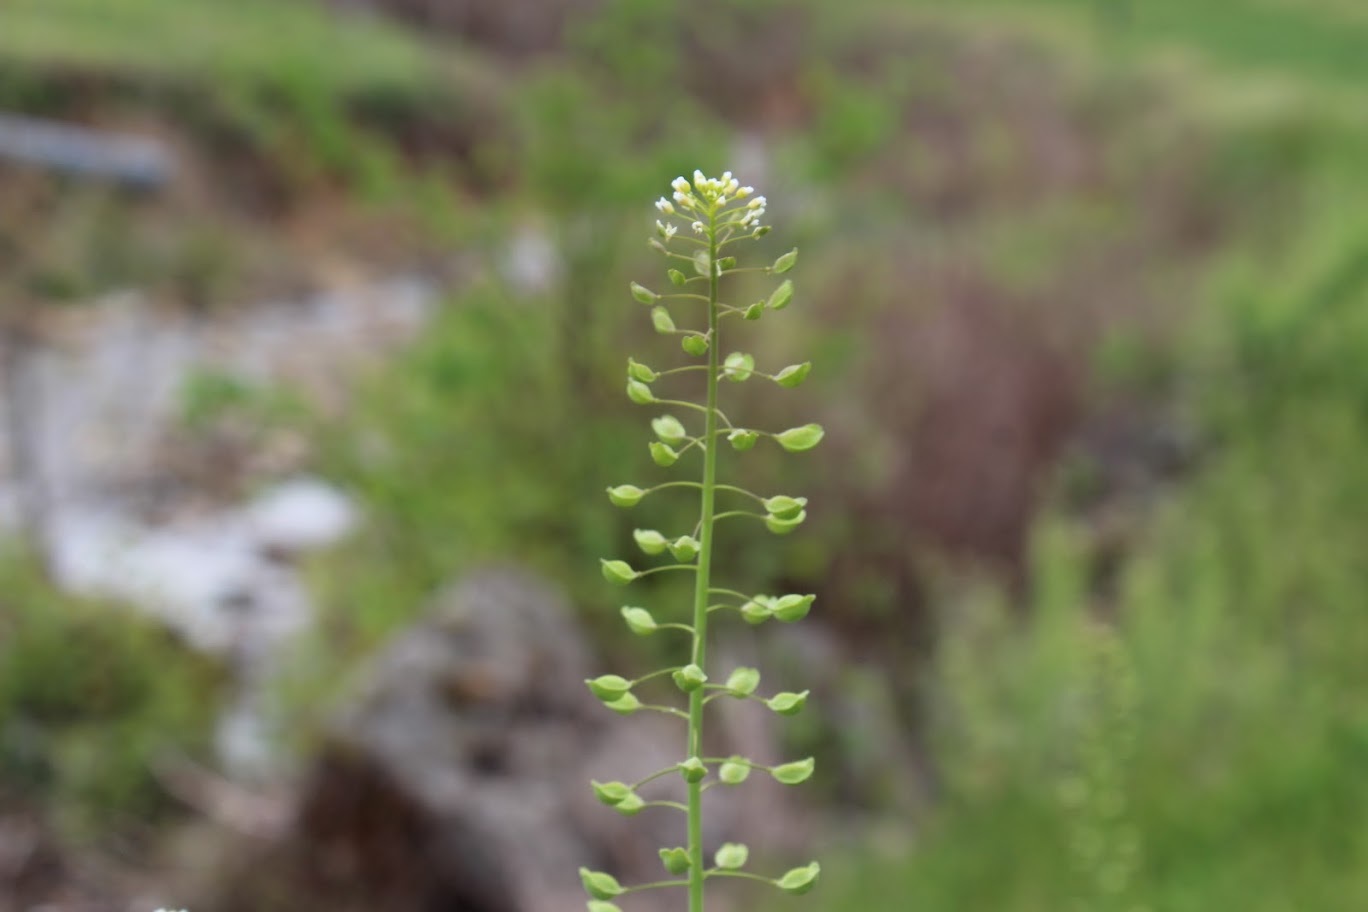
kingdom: Plantae
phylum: Tracheophyta
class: Magnoliopsida
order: Brassicales
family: Brassicaceae
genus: Mummenhoffia
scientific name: Mummenhoffia alliacea
